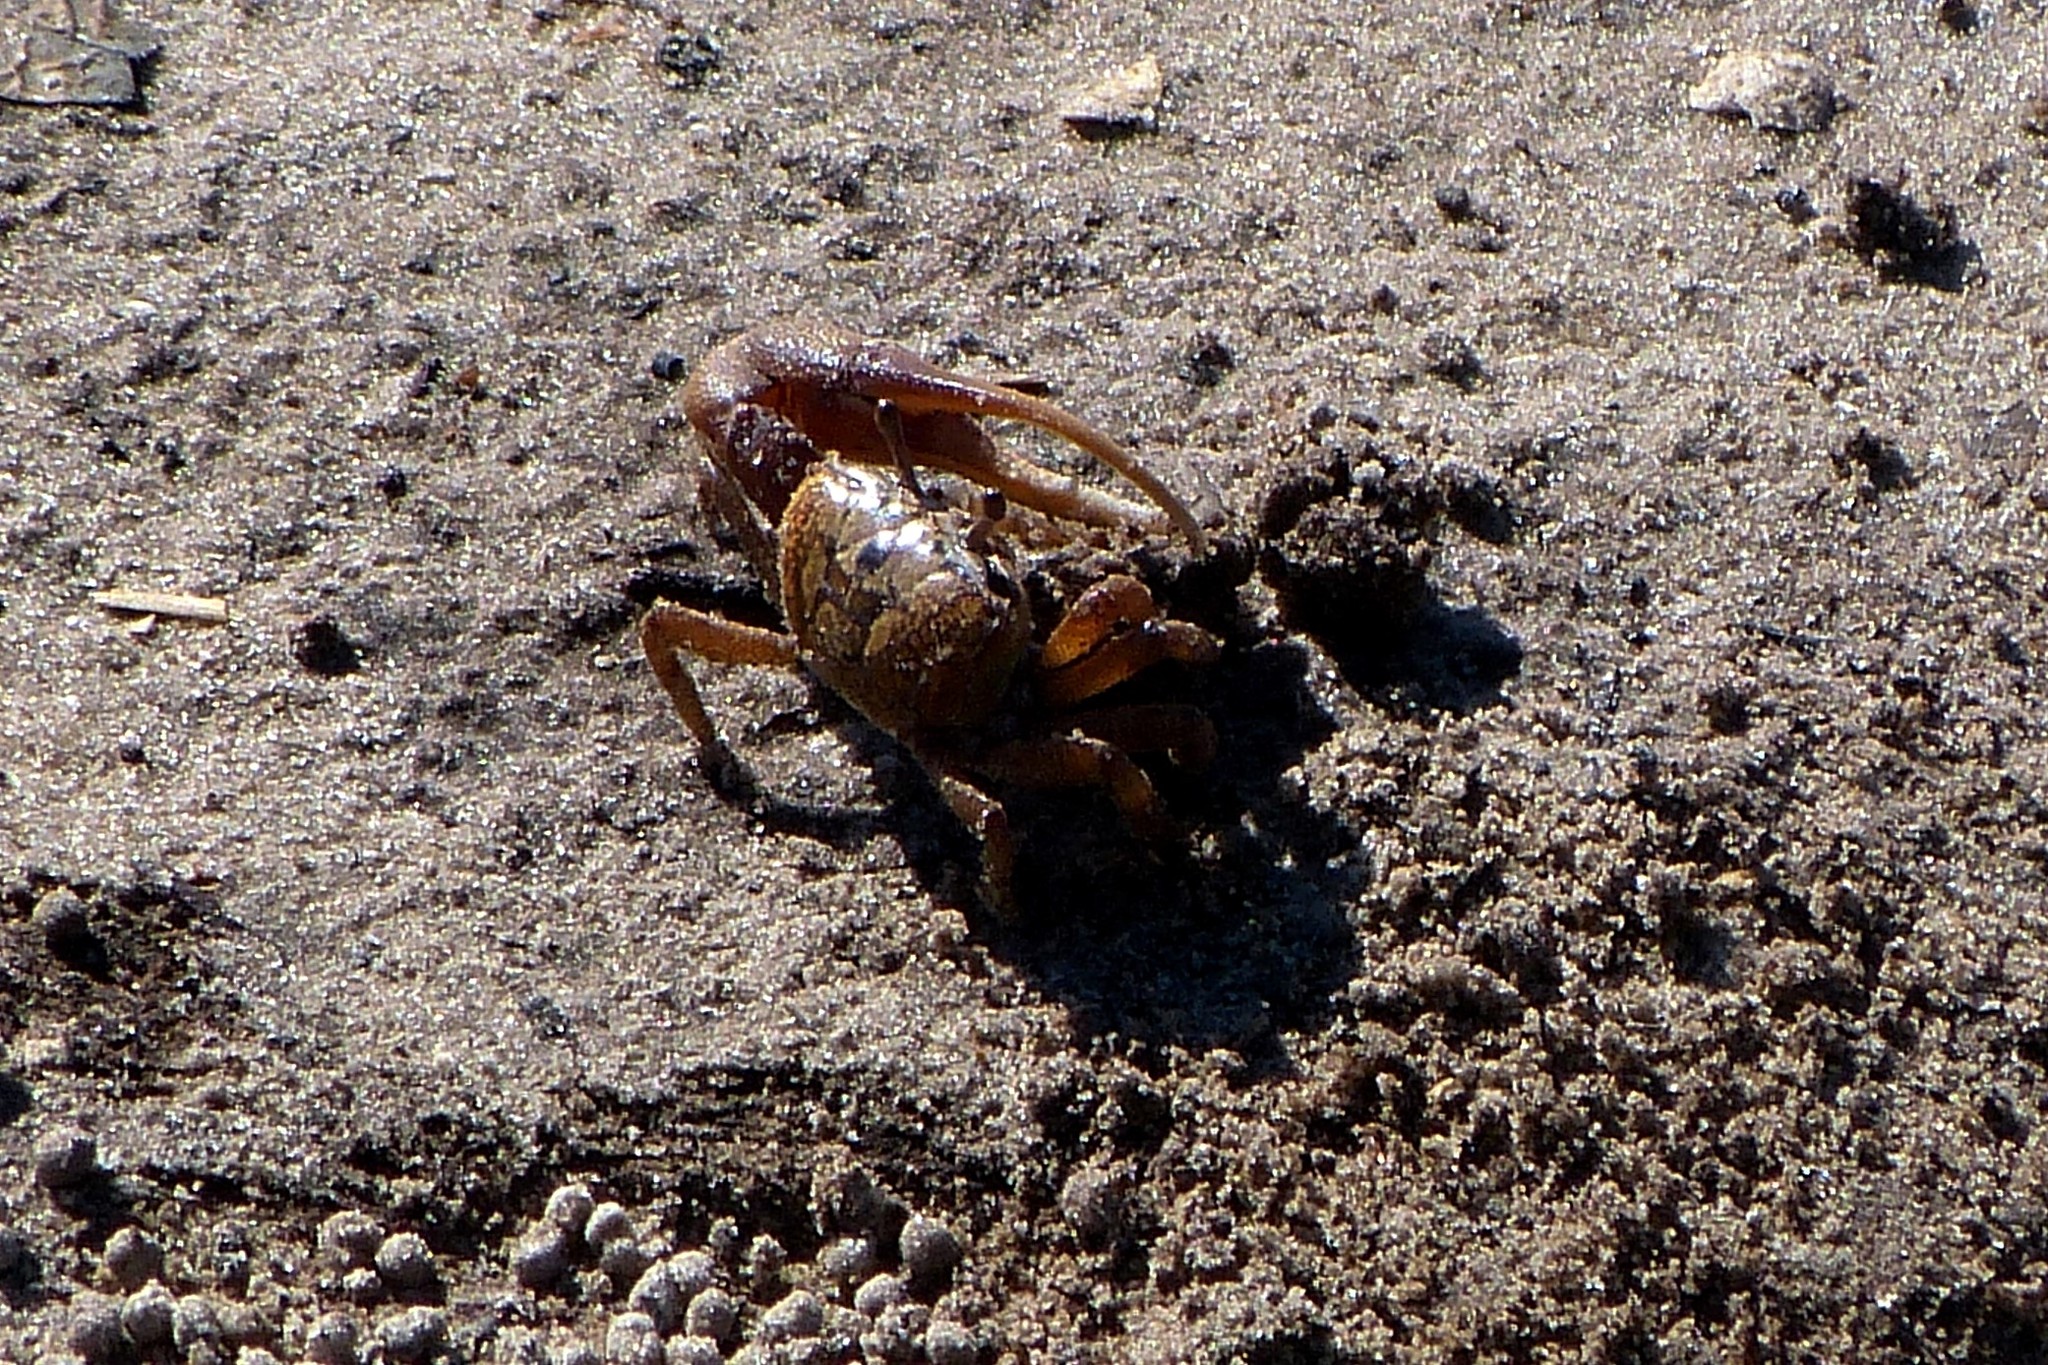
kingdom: Animalia
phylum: Arthropoda
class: Malacostraca
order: Decapoda
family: Ocypodidae
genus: Leptuca
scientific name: Leptuca pugilator
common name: Atlantic sand fiddler crab
